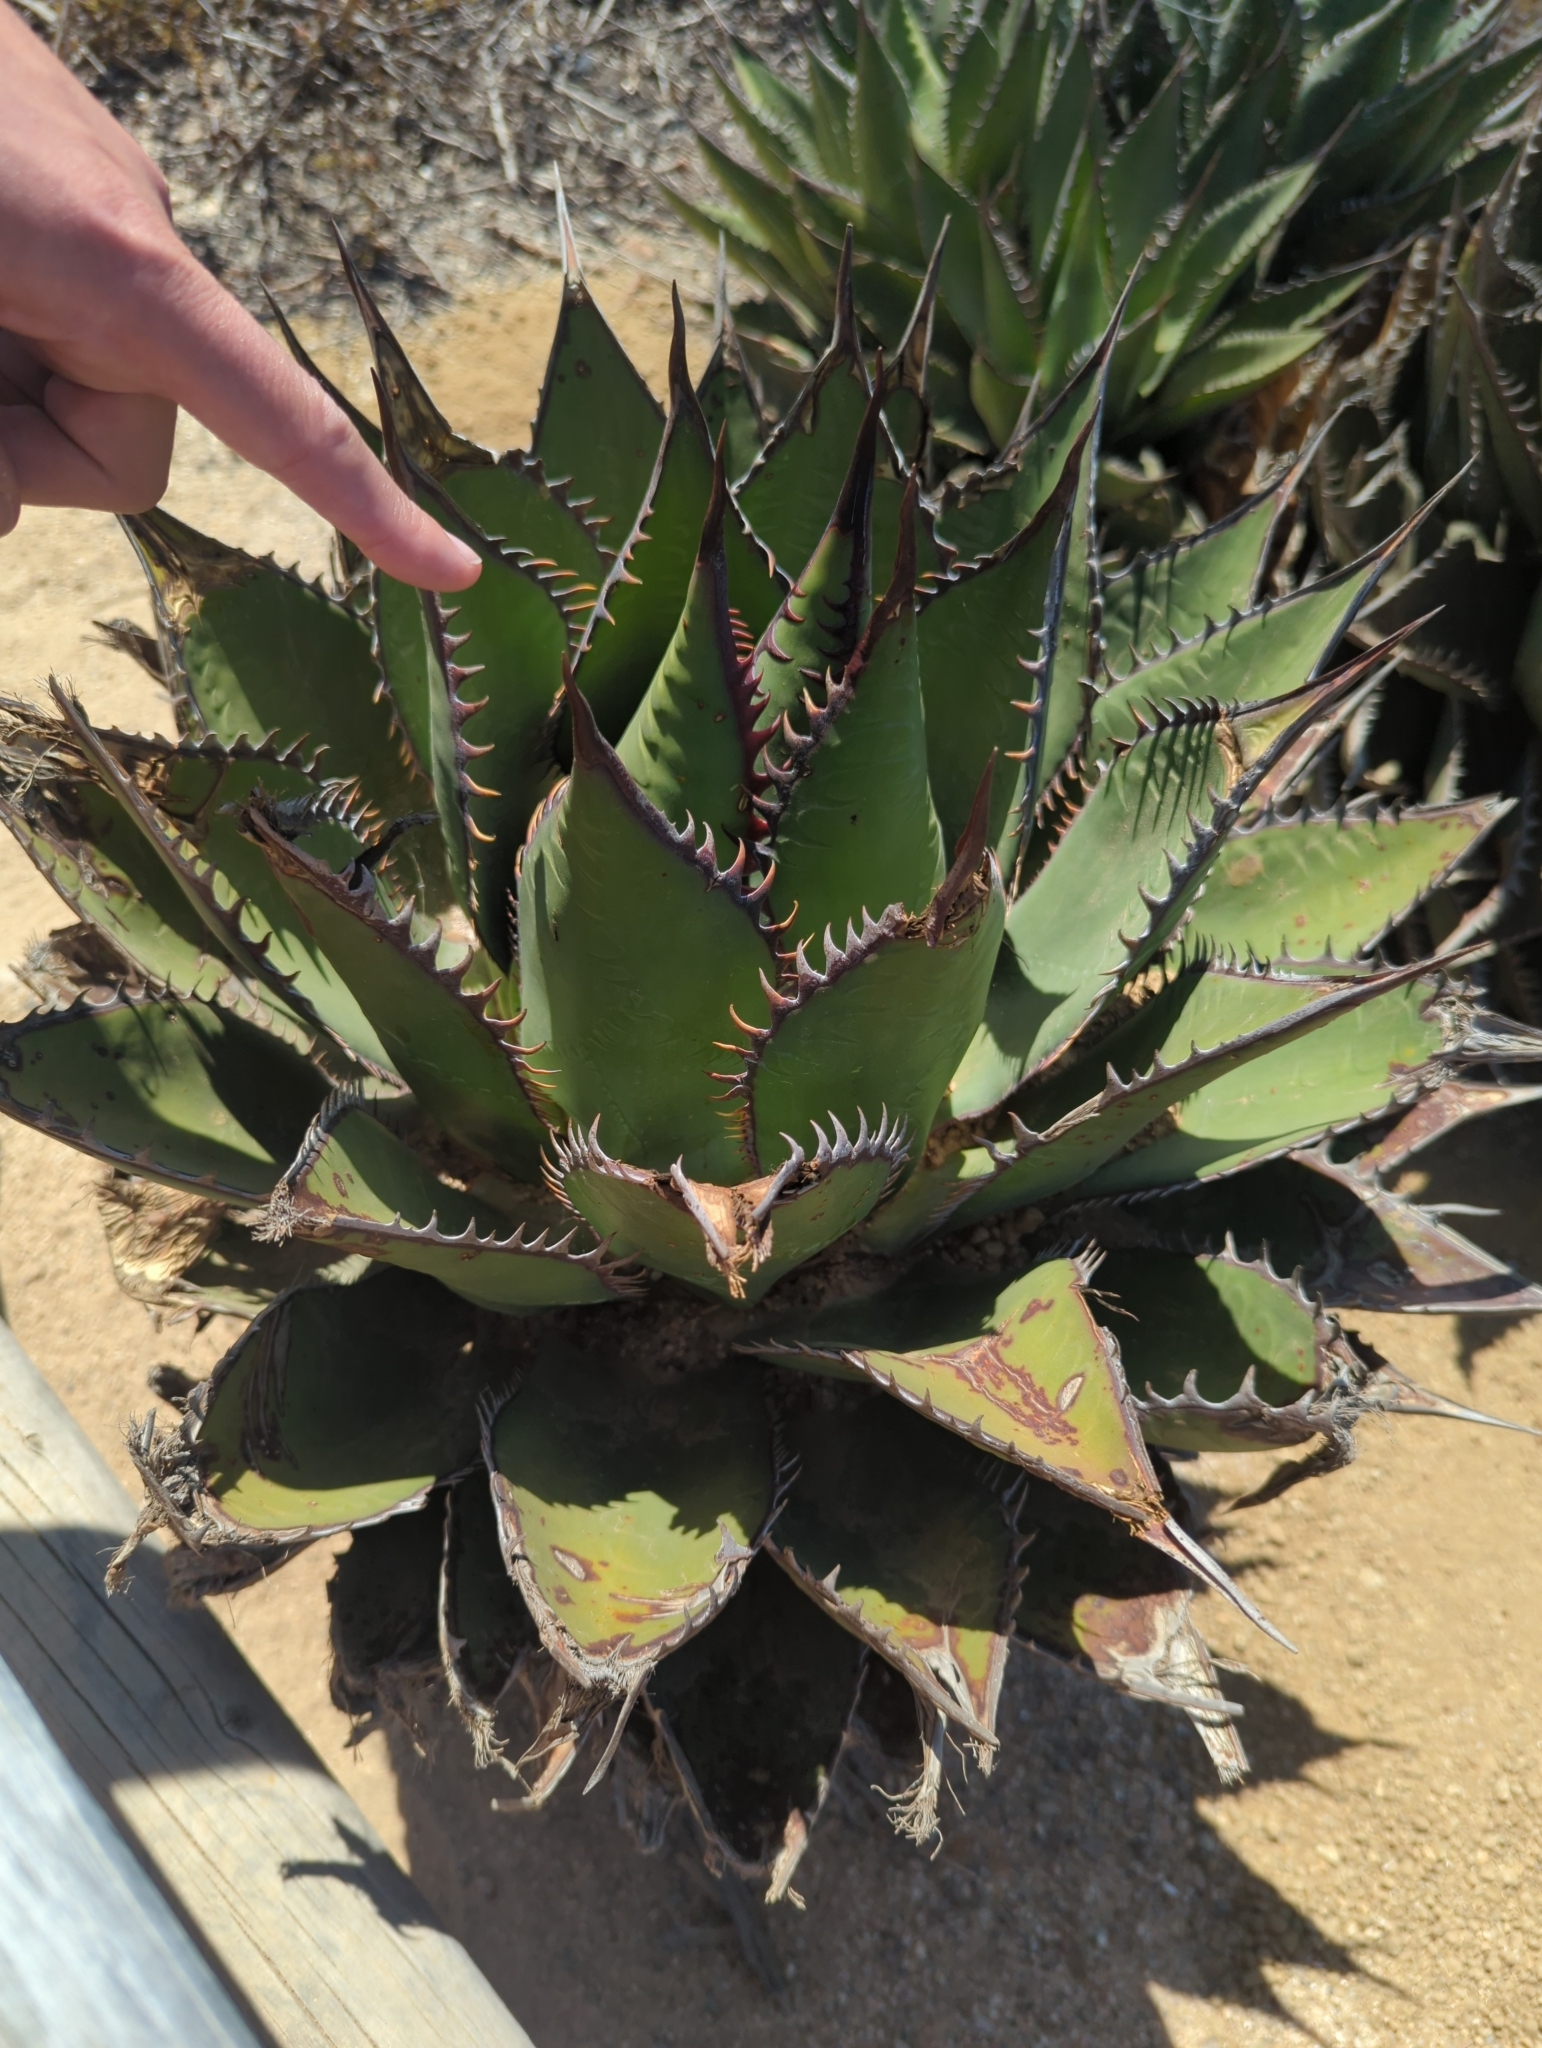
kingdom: Plantae
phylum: Tracheophyta
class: Liliopsida
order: Asparagales
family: Asparagaceae
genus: Agave
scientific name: Agave shawii
